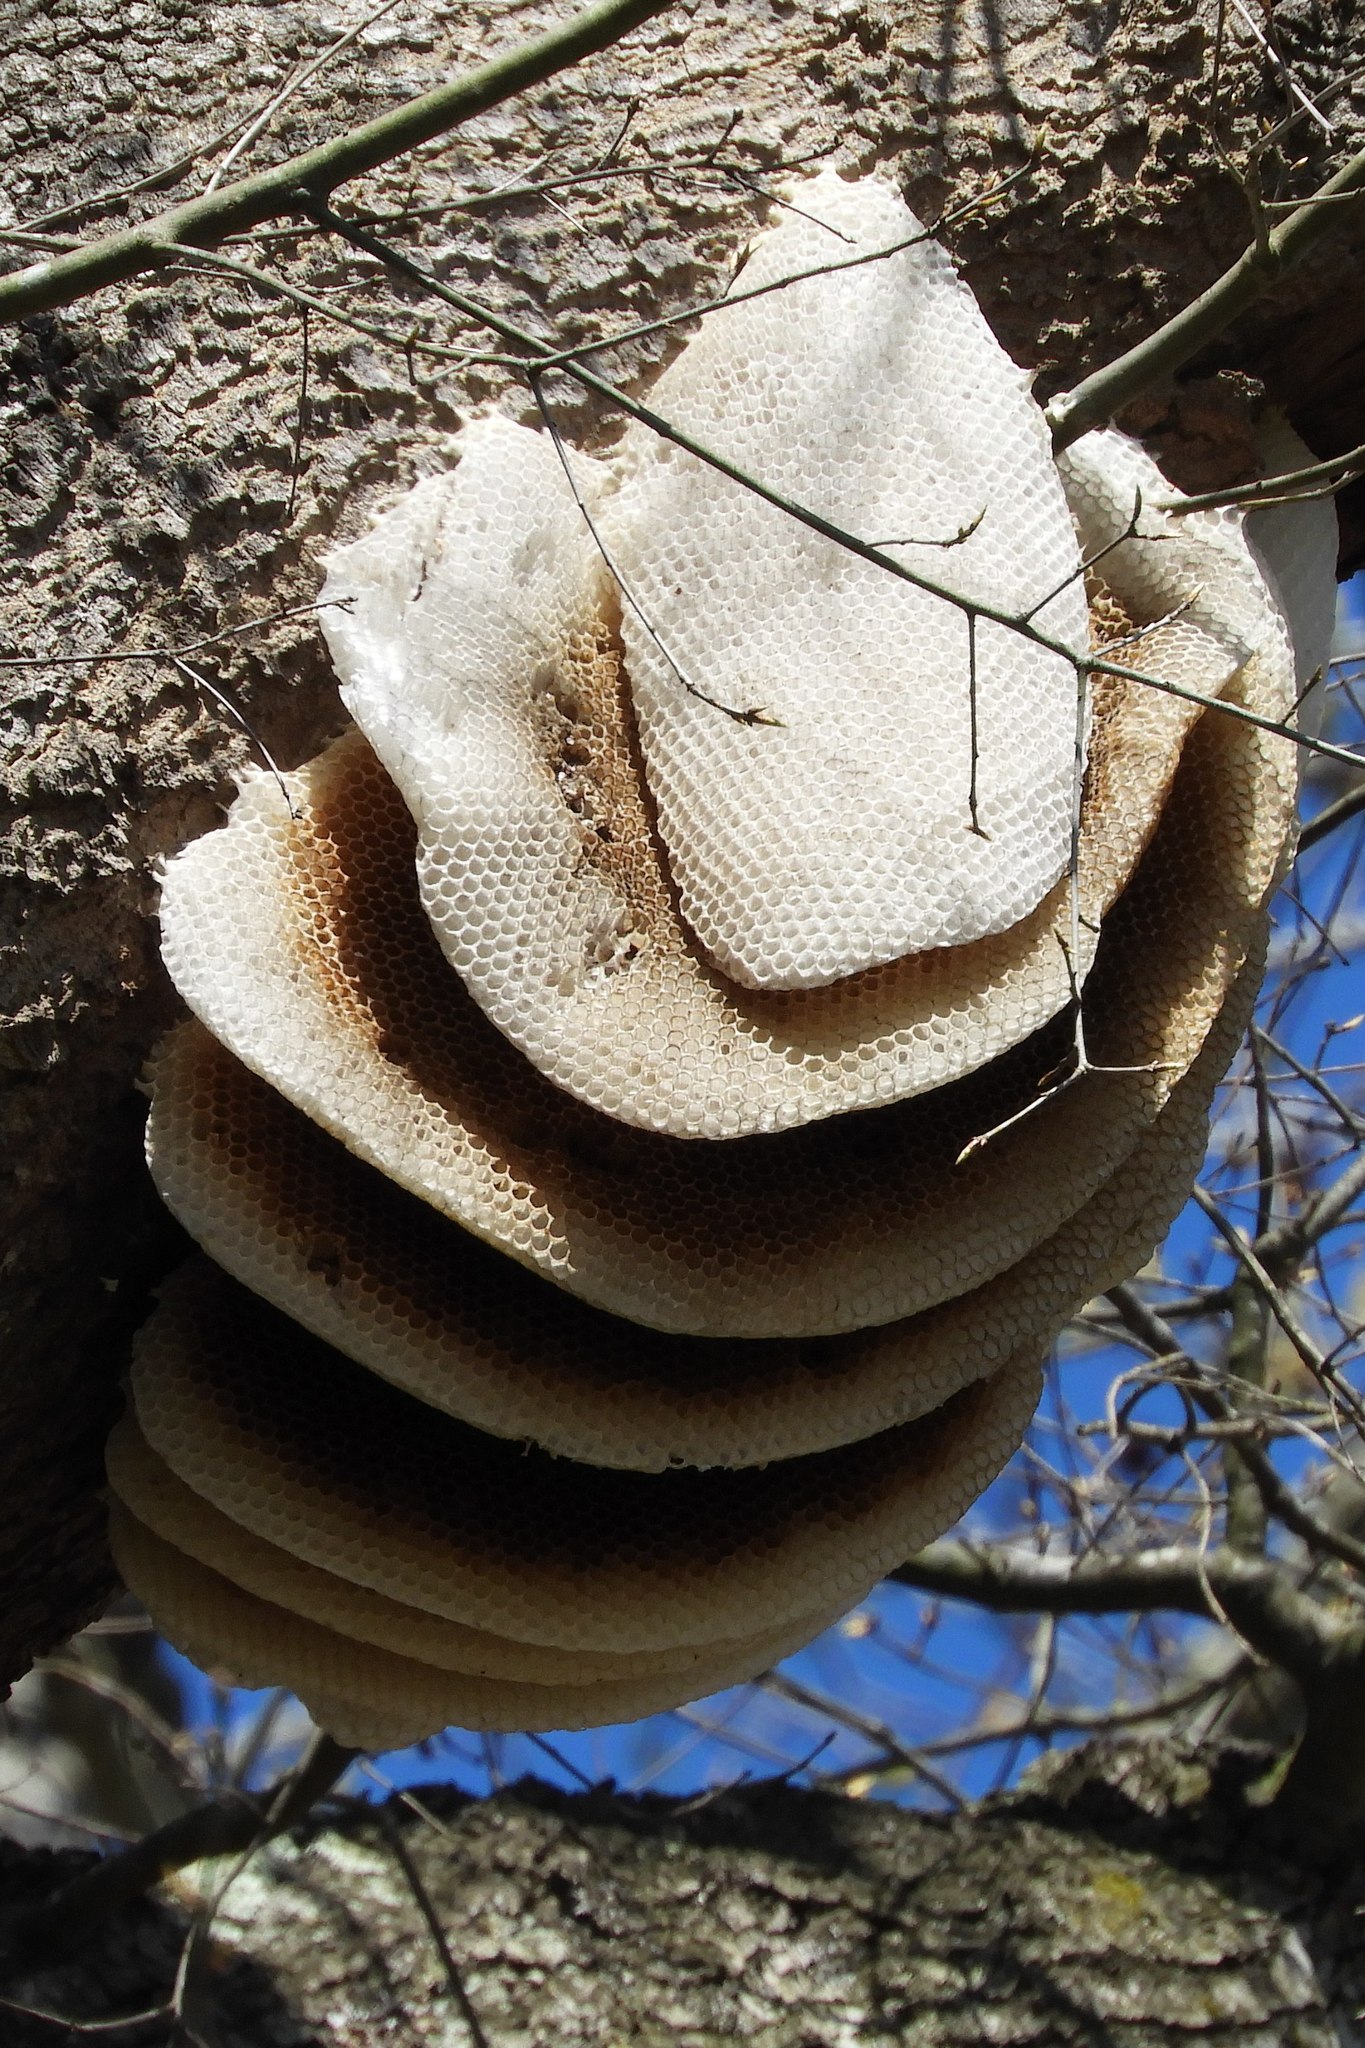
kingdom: Animalia
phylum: Arthropoda
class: Insecta
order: Hymenoptera
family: Apidae
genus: Apis
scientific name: Apis mellifera
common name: Honey bee
